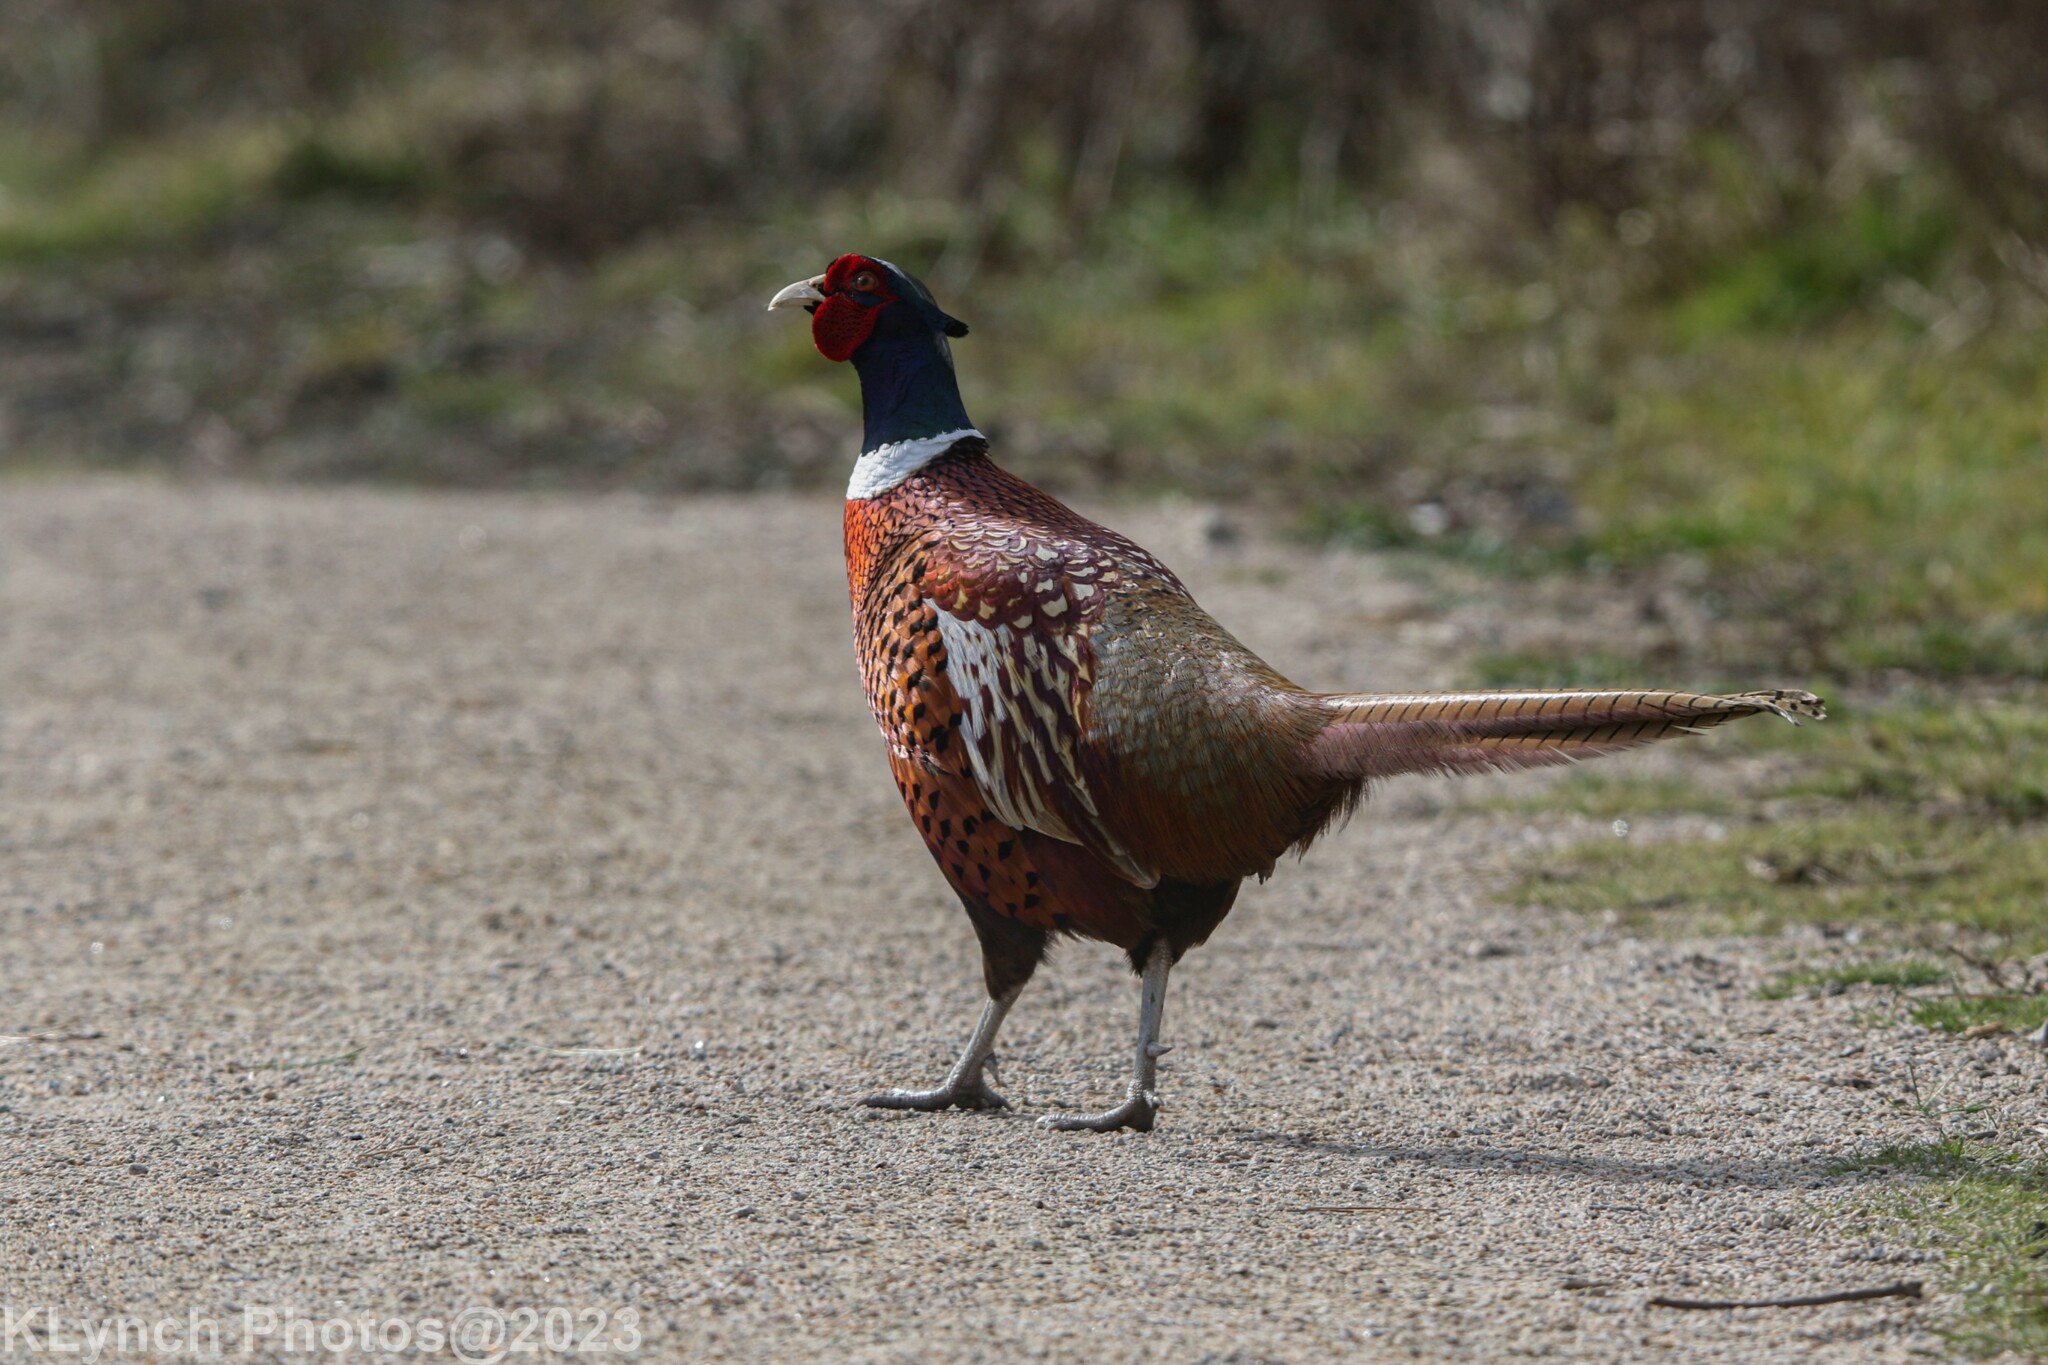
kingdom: Animalia
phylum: Chordata
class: Aves
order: Galliformes
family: Phasianidae
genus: Phasianus
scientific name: Phasianus colchicus
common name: Common pheasant
